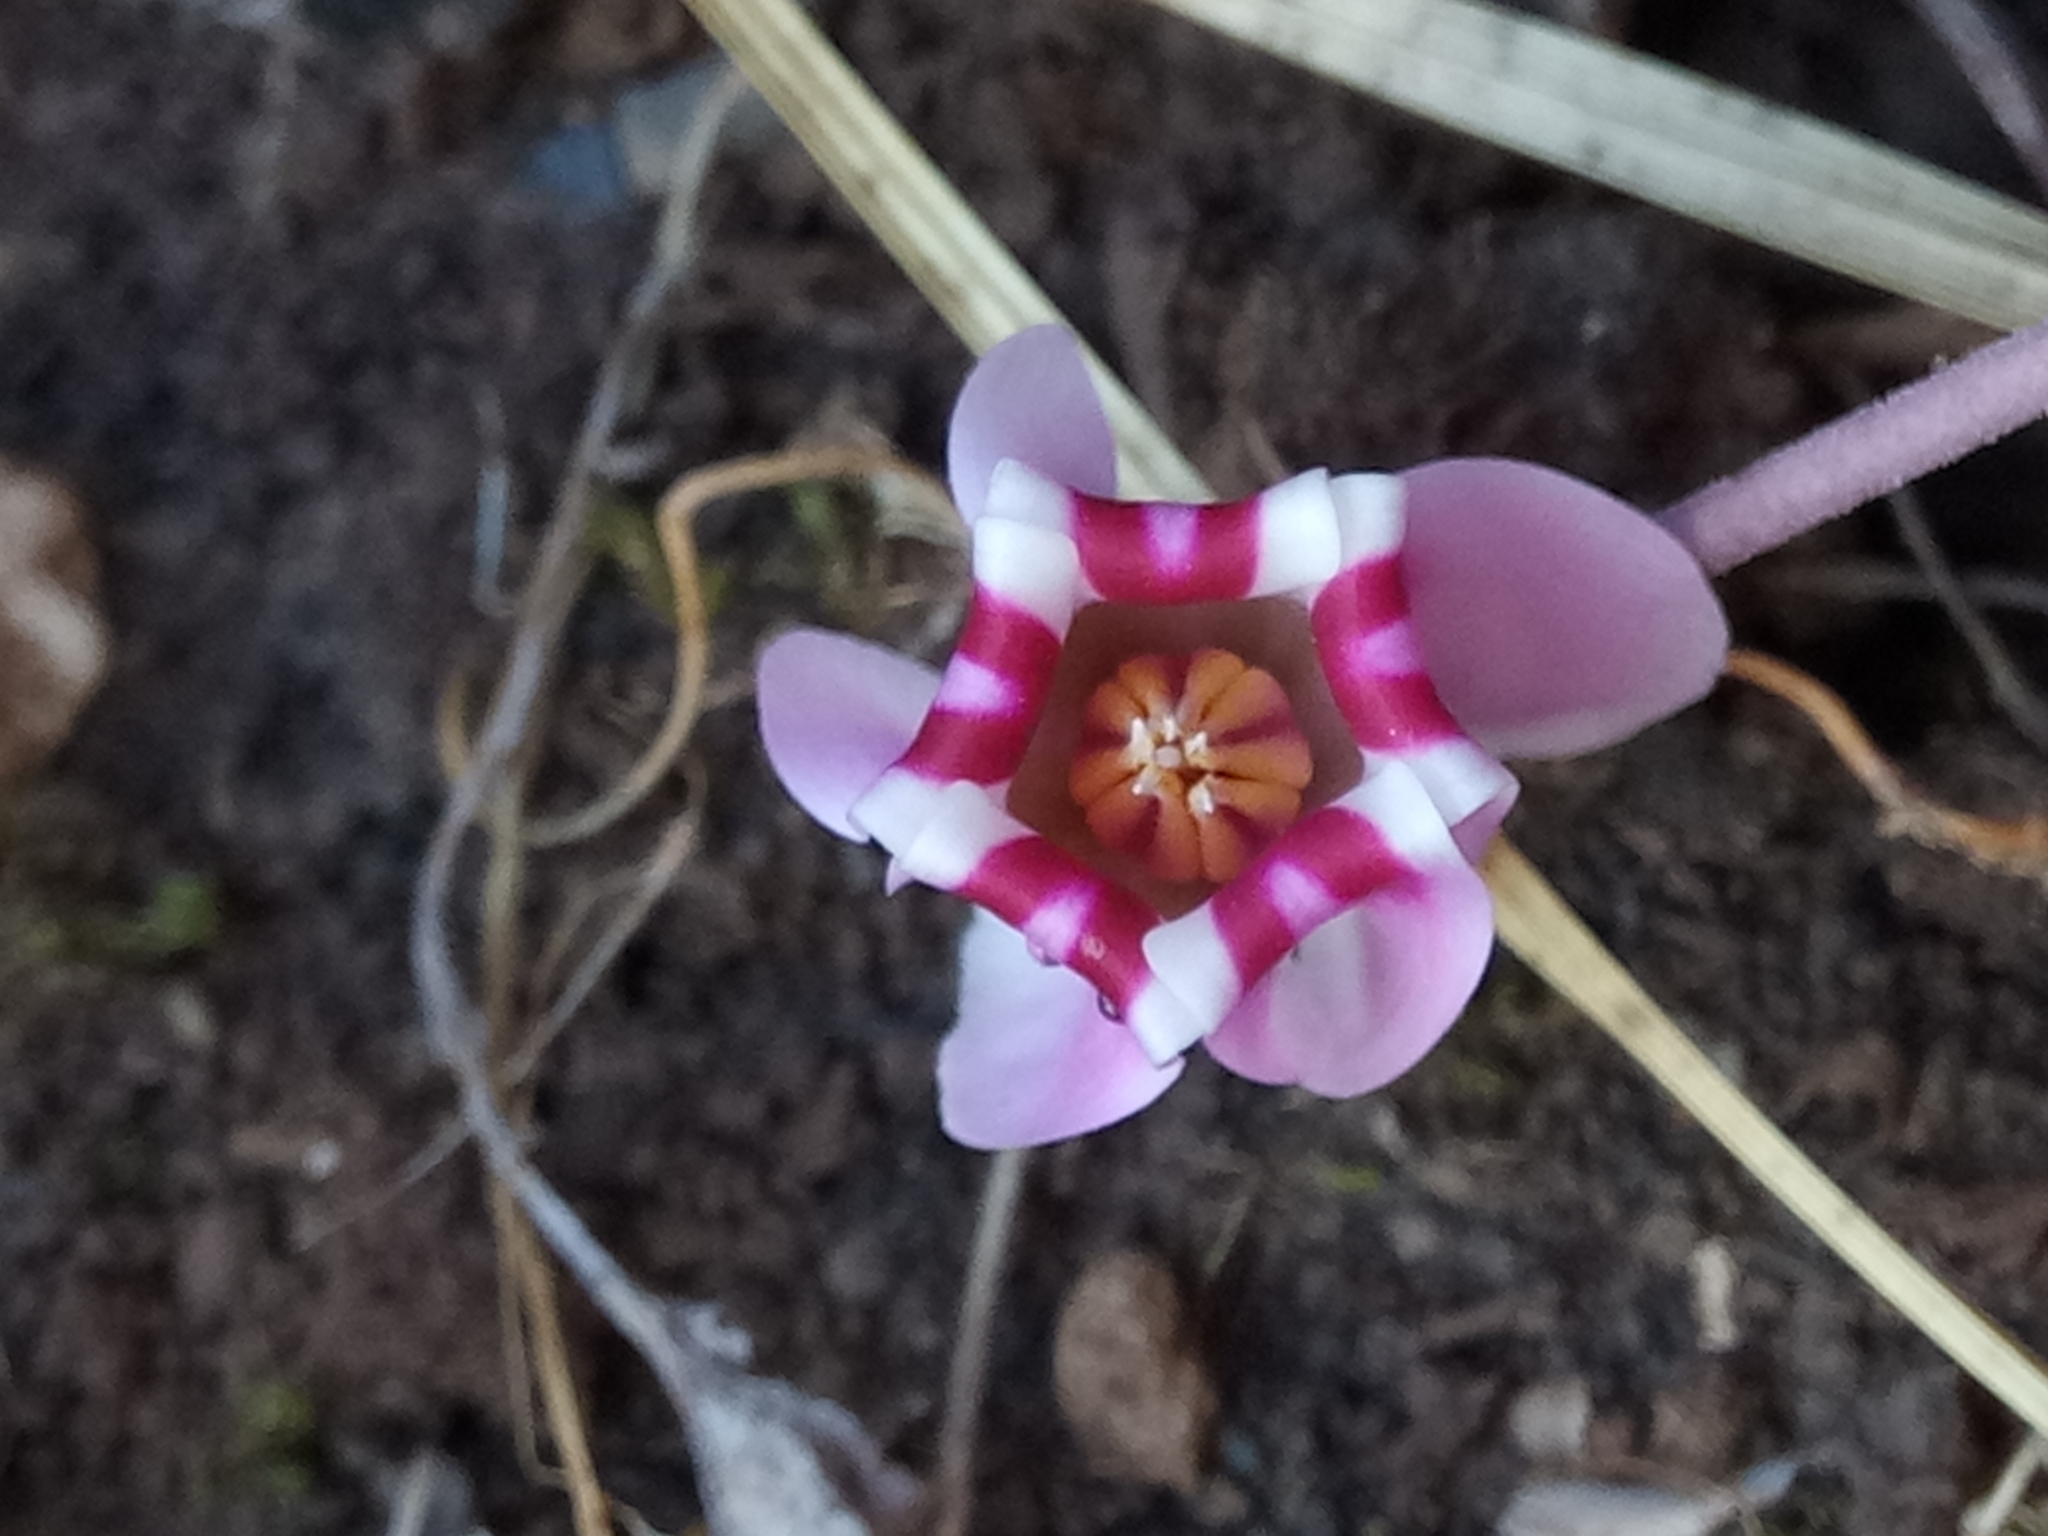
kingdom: Plantae
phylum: Tracheophyta
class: Magnoliopsida
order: Ericales
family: Primulaceae
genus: Cyclamen
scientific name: Cyclamen africanum
